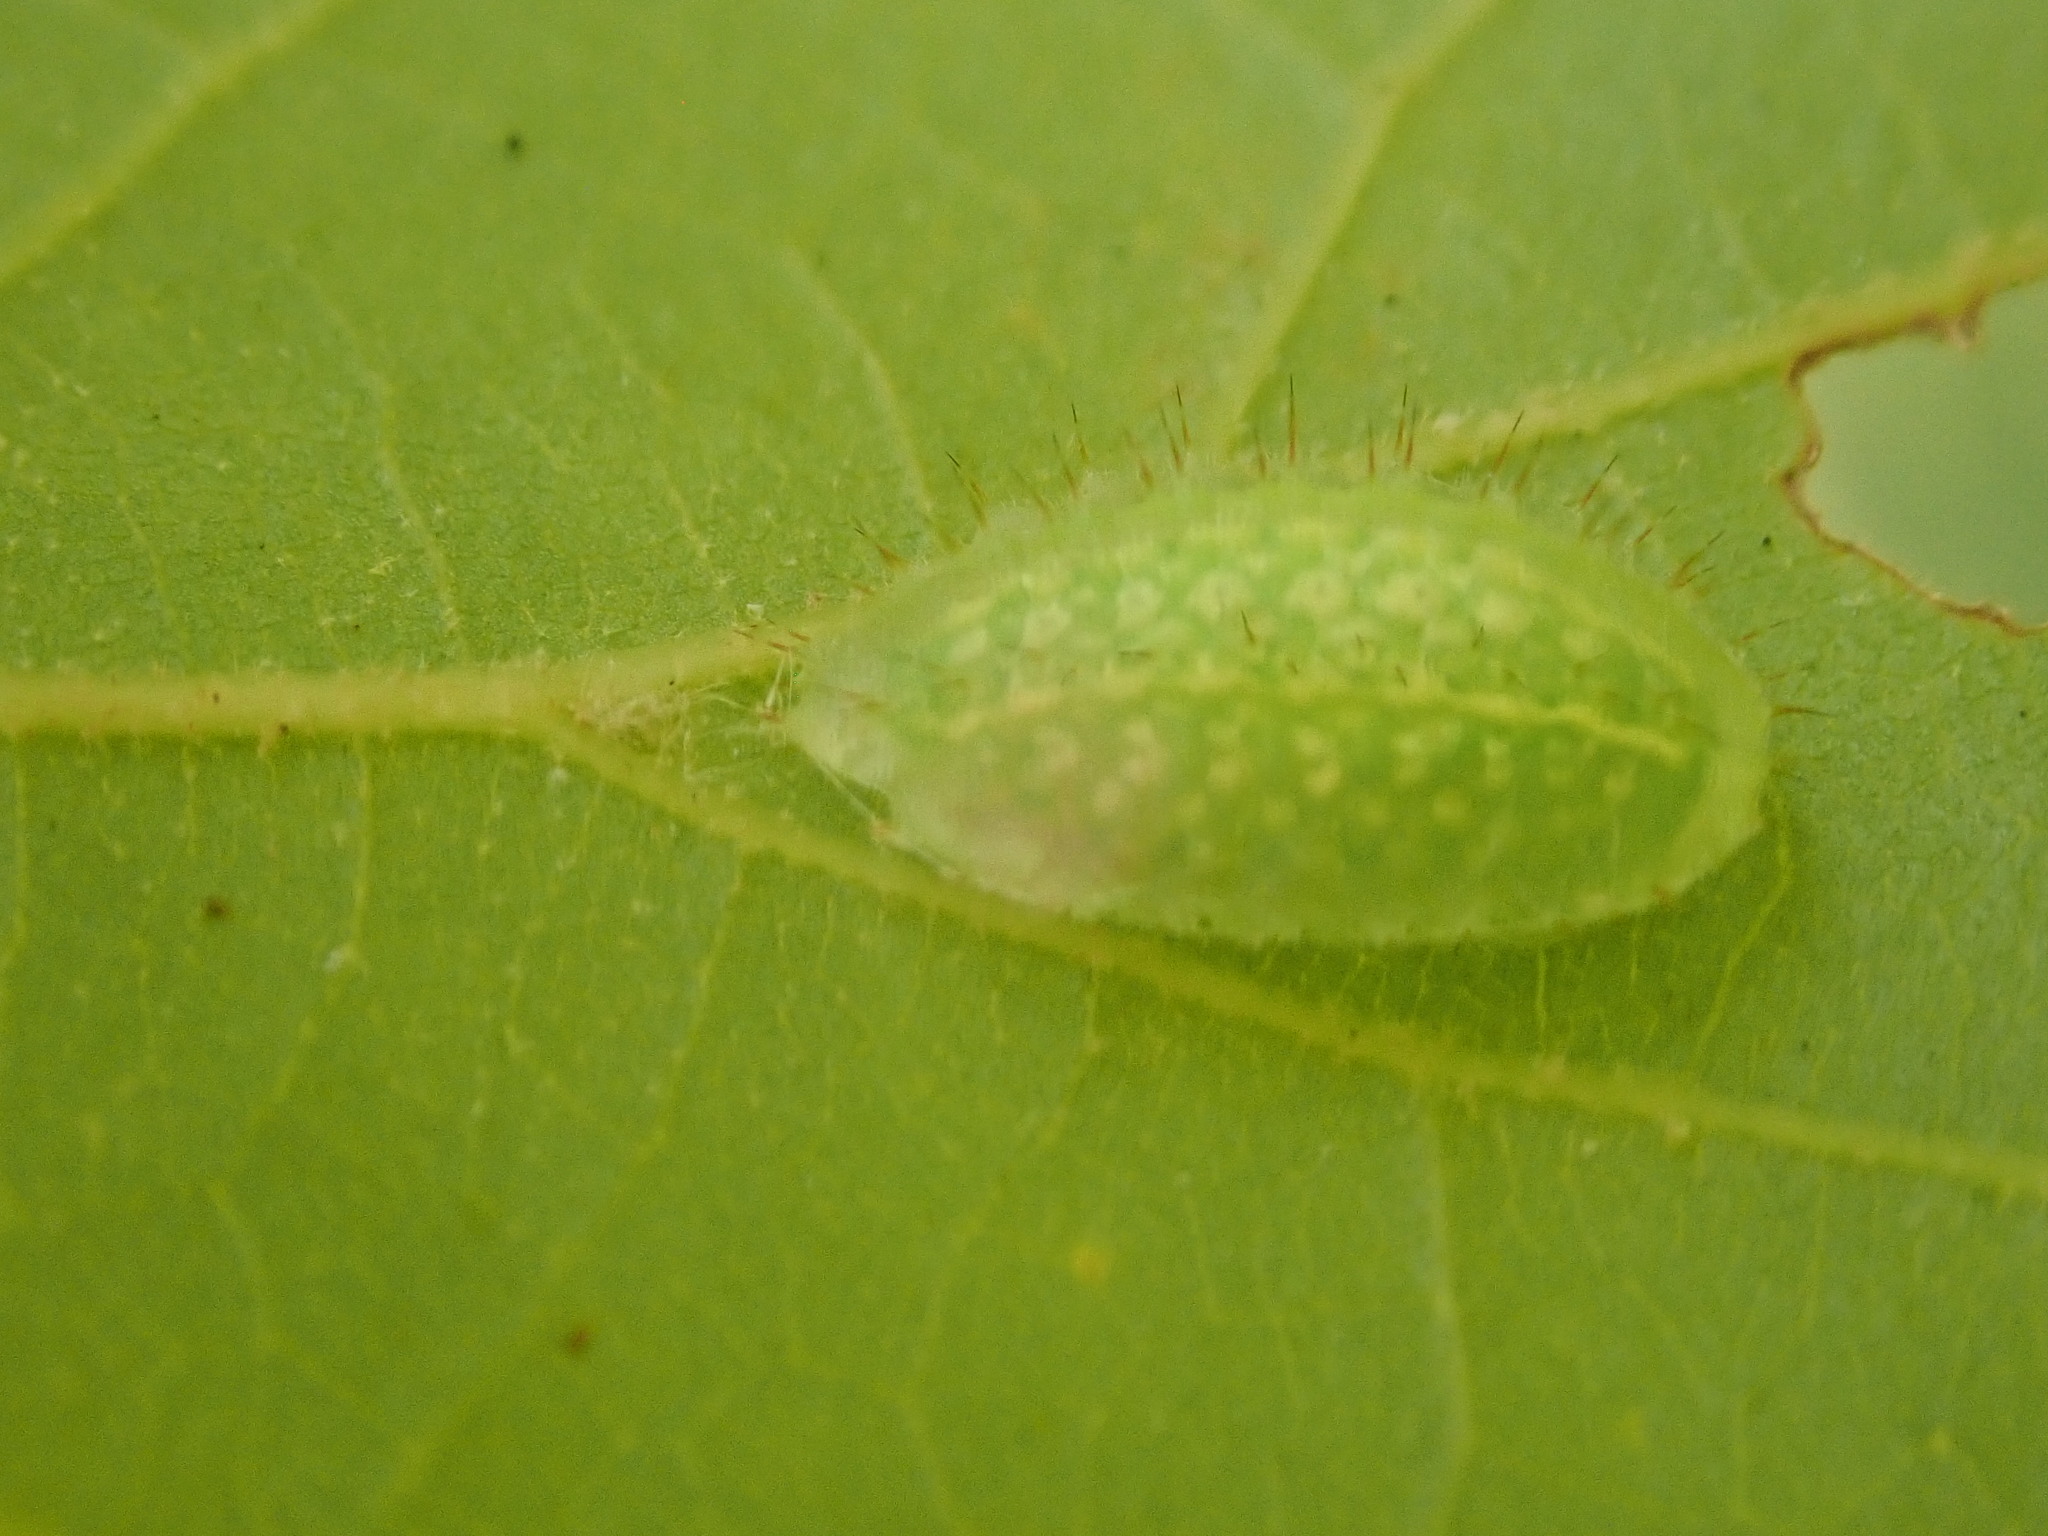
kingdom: Animalia
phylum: Arthropoda
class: Insecta
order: Lepidoptera
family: Limacodidae
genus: Lithacodes
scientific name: Lithacodes fasciola
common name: Yellow-shouldered slug moth
